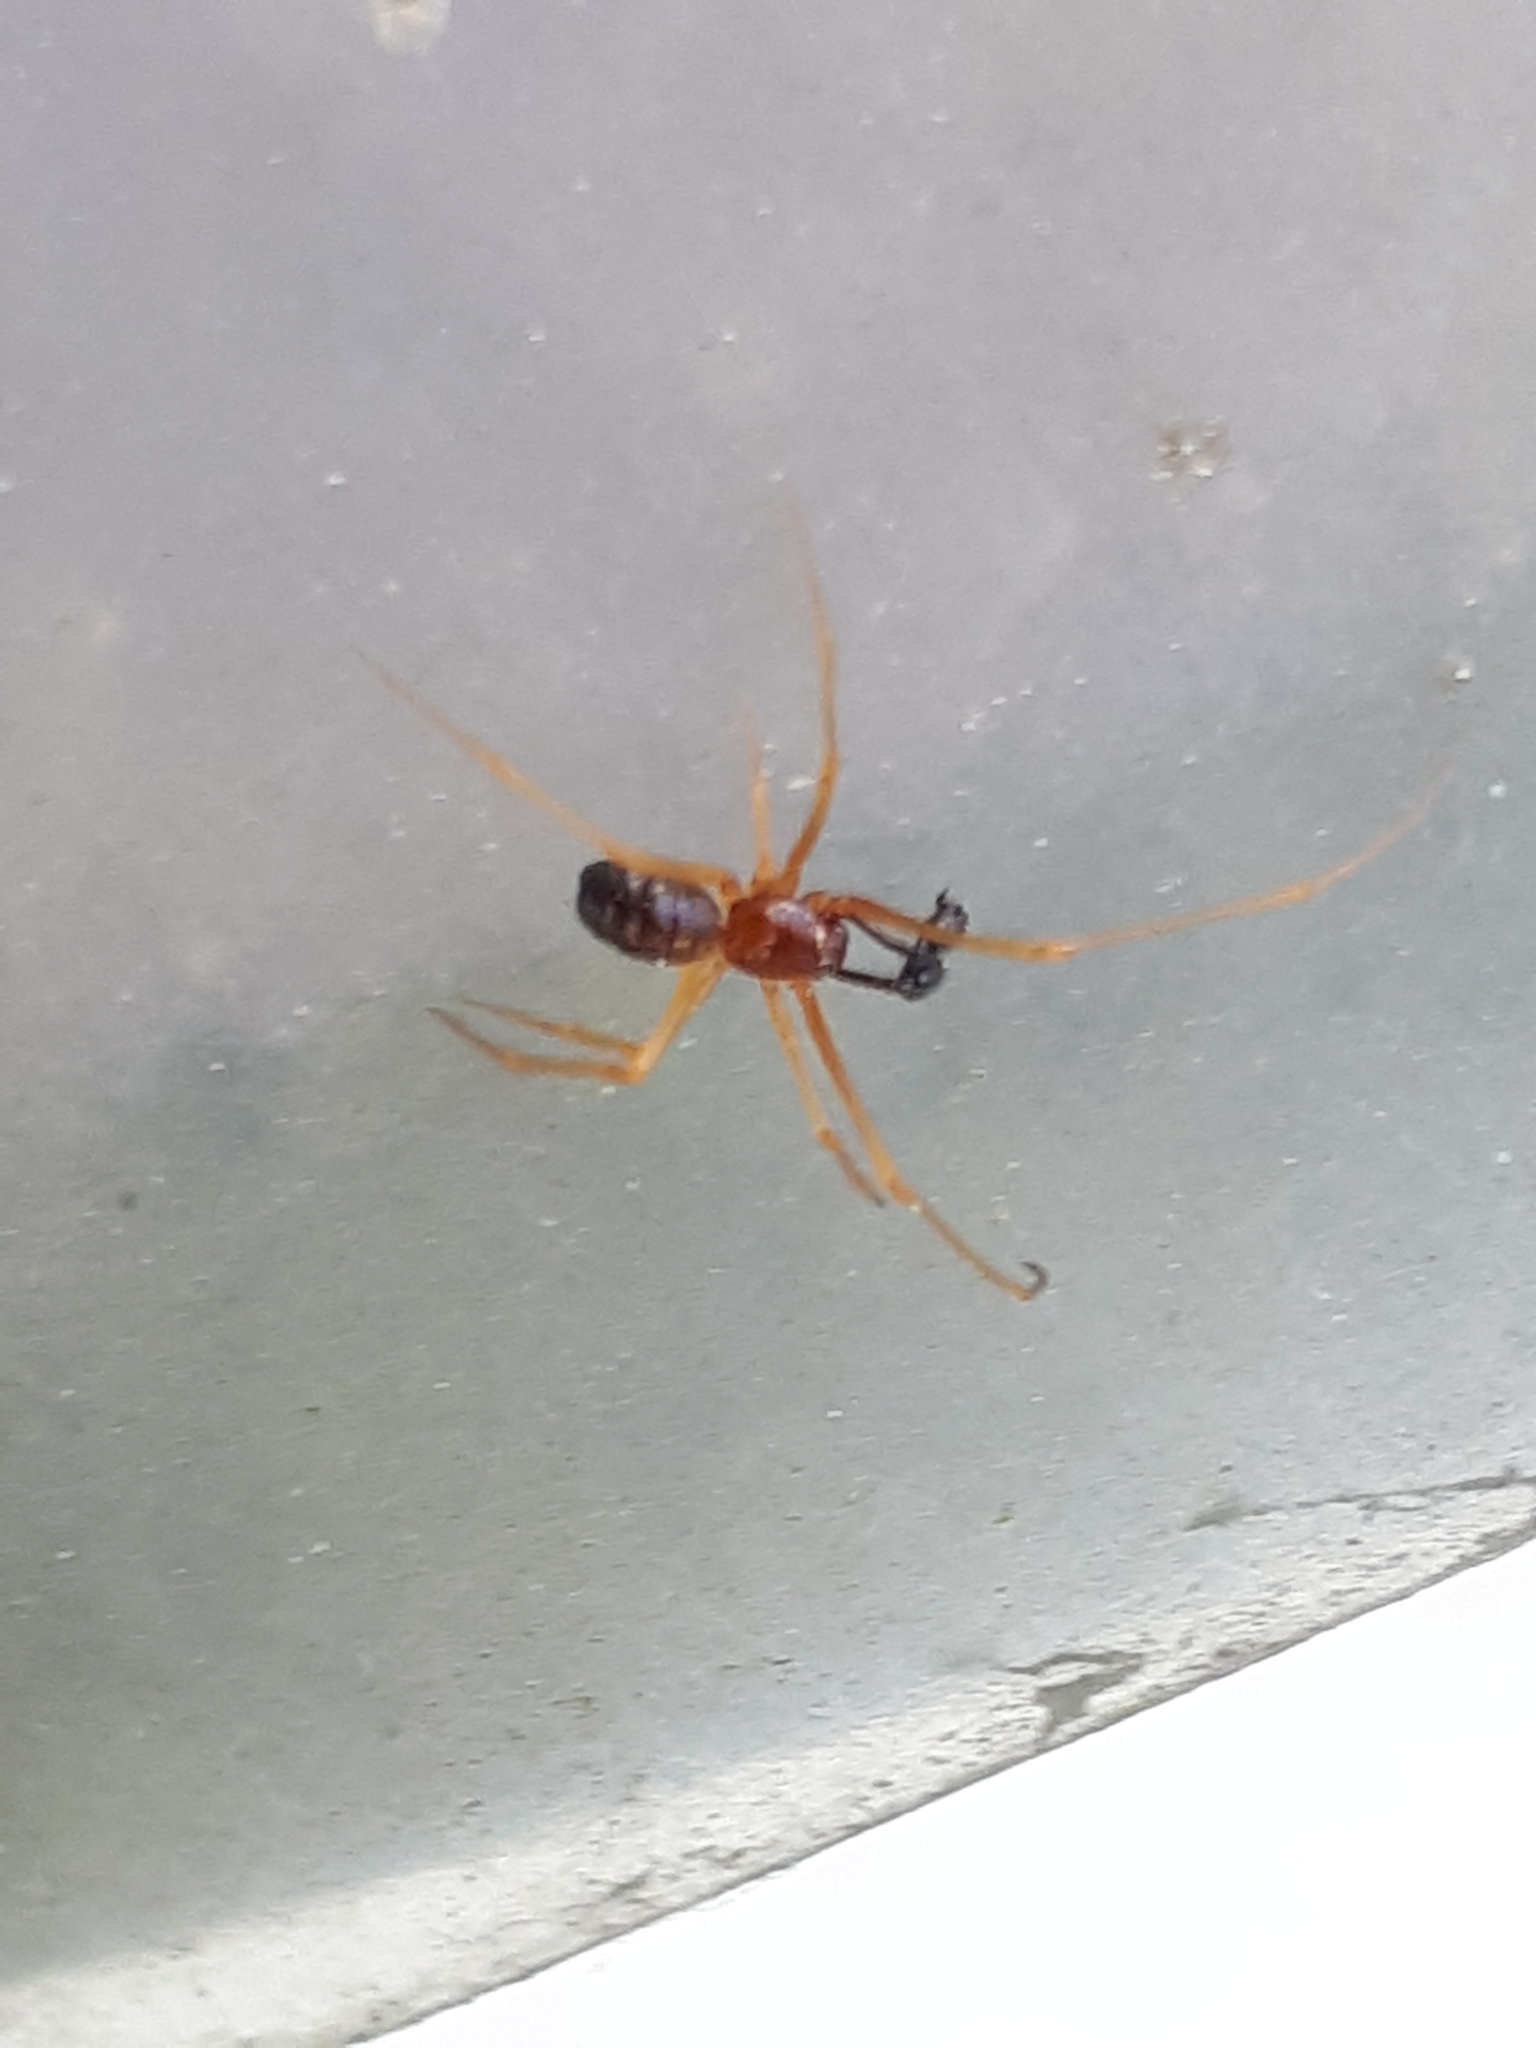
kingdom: Animalia
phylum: Arthropoda
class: Arachnida
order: Araneae
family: Theridiidae
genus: Neottiura
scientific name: Neottiura bimaculata
